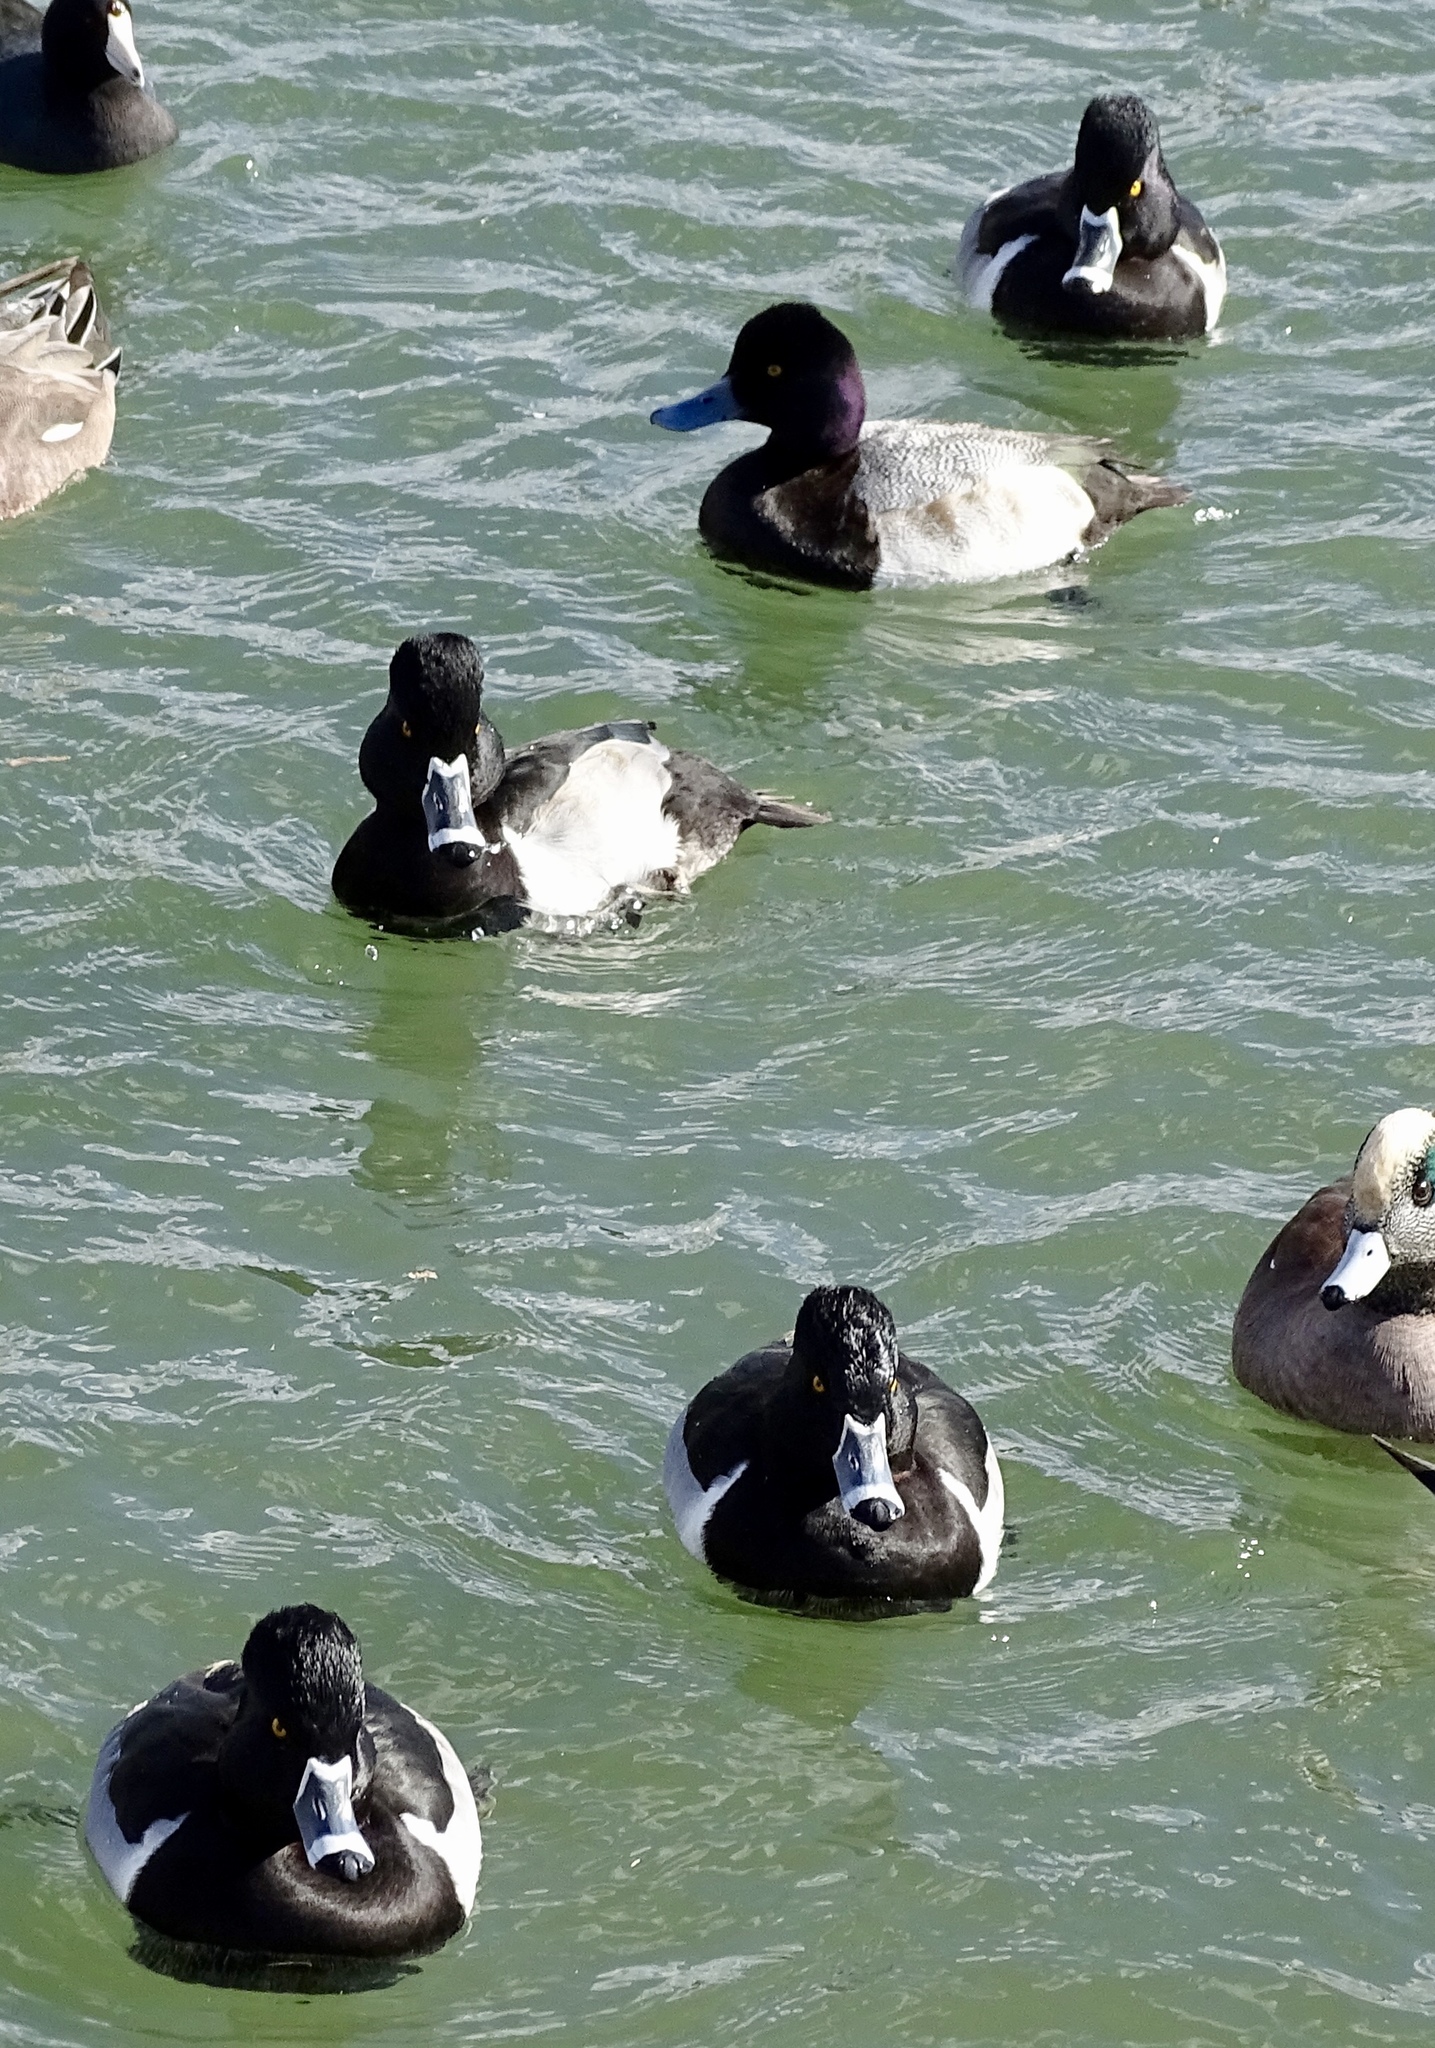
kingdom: Animalia
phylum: Chordata
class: Aves
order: Anseriformes
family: Anatidae
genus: Aythya
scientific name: Aythya collaris
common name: Ring-necked duck
